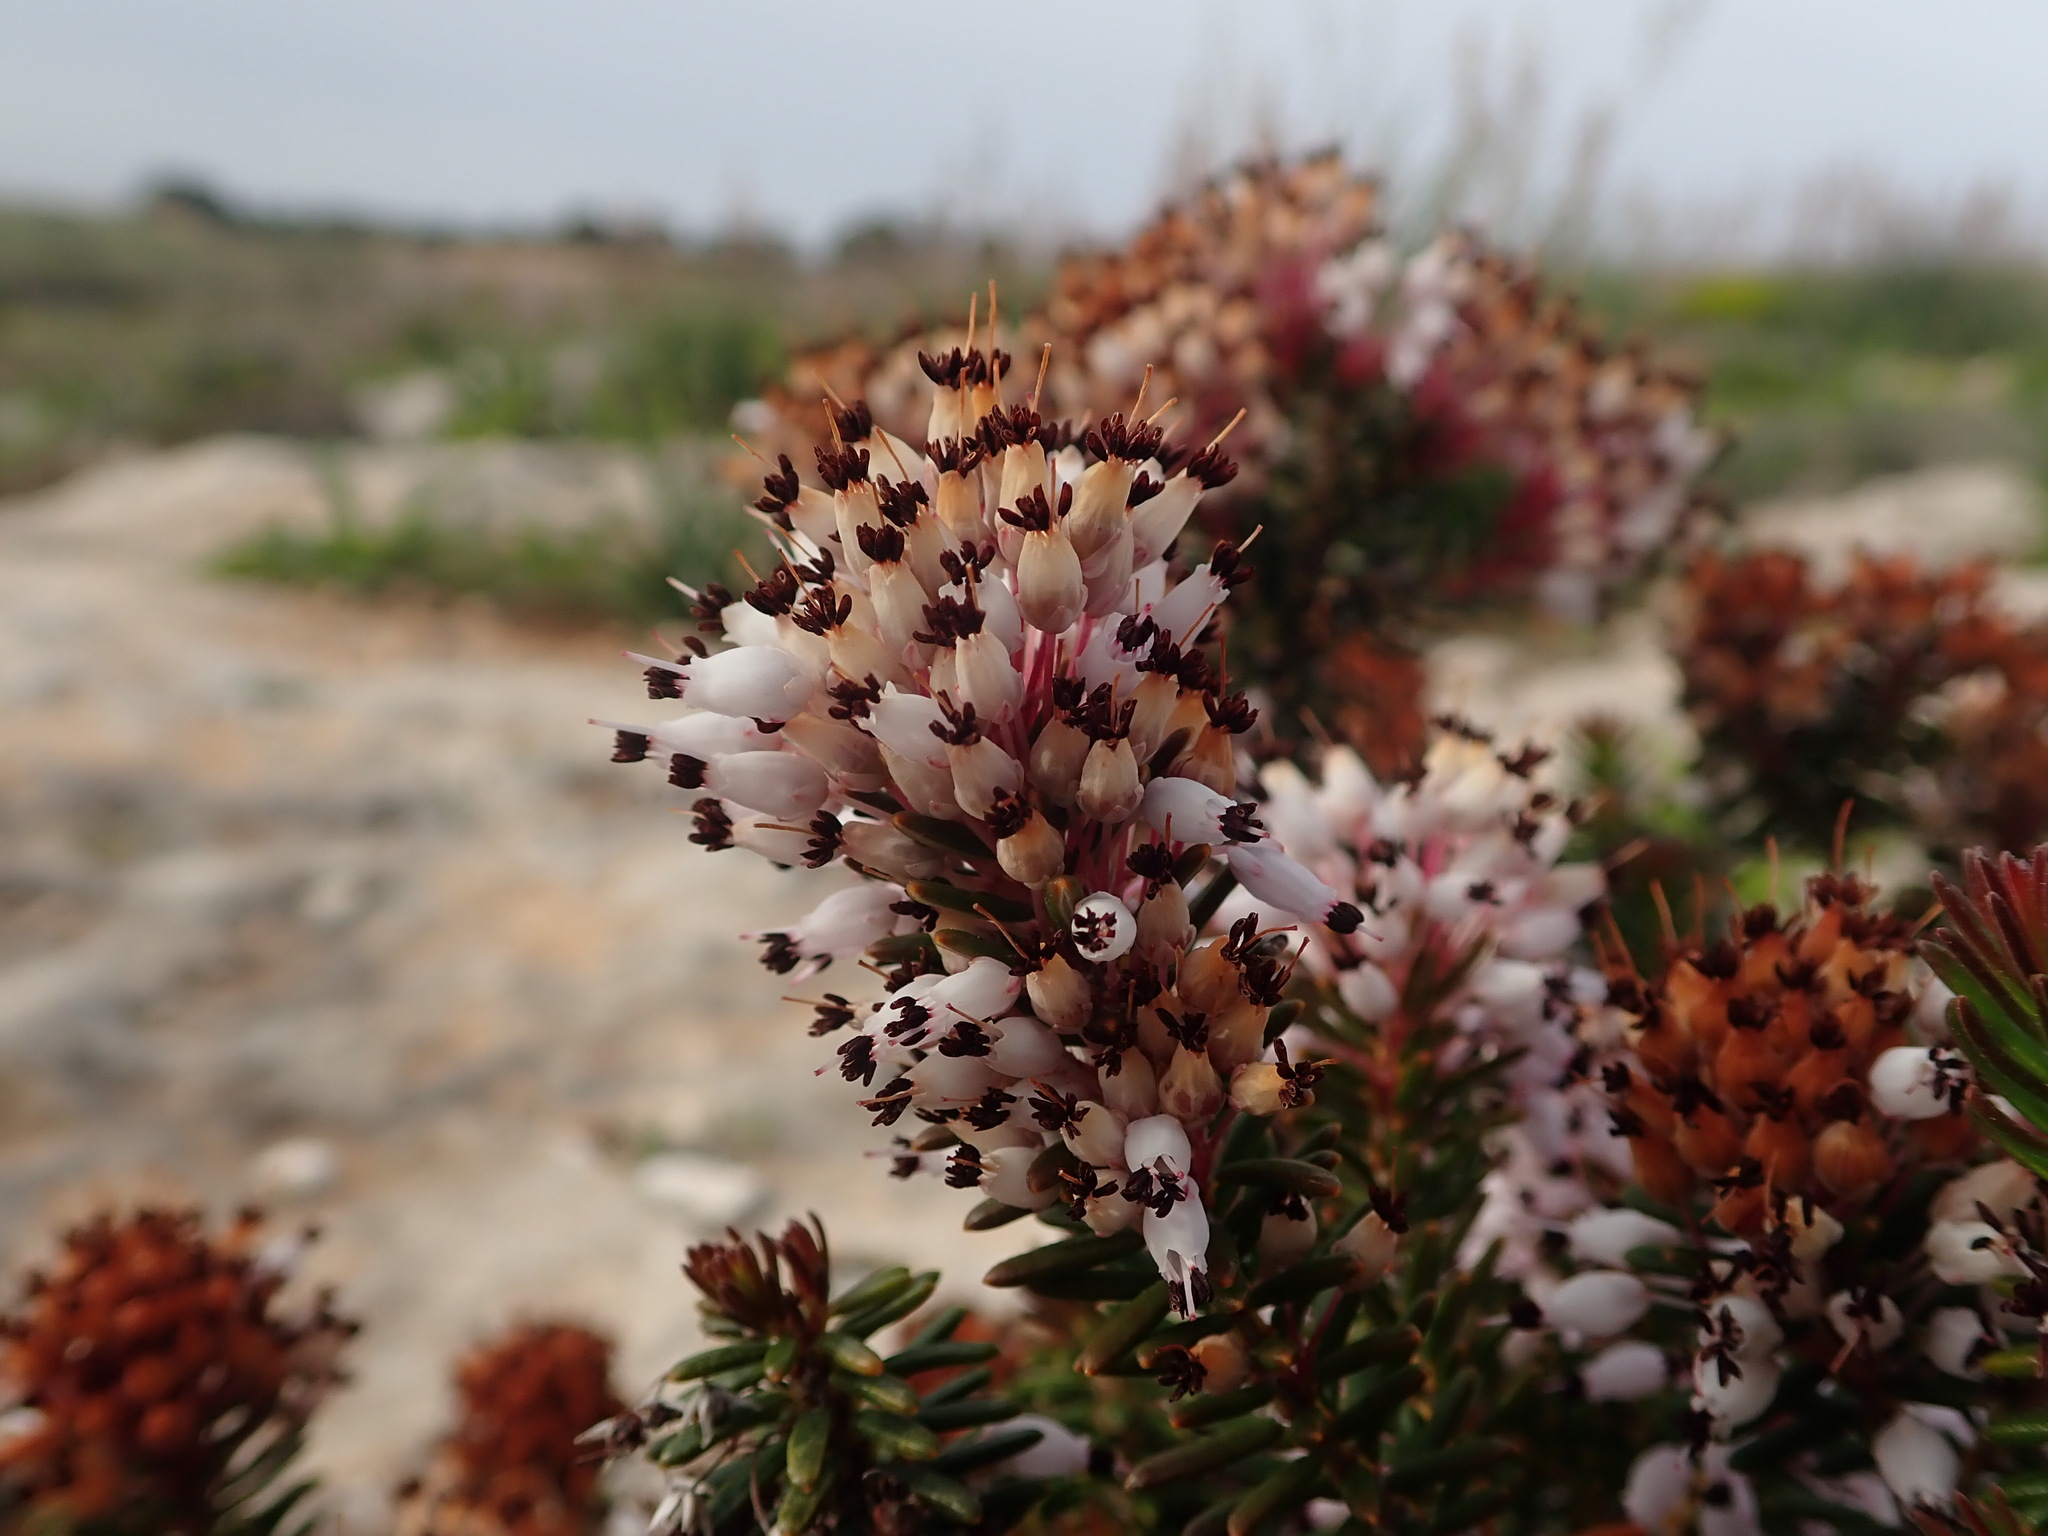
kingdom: Plantae
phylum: Tracheophyta
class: Magnoliopsida
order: Ericales
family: Ericaceae
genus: Erica
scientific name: Erica multiflora
